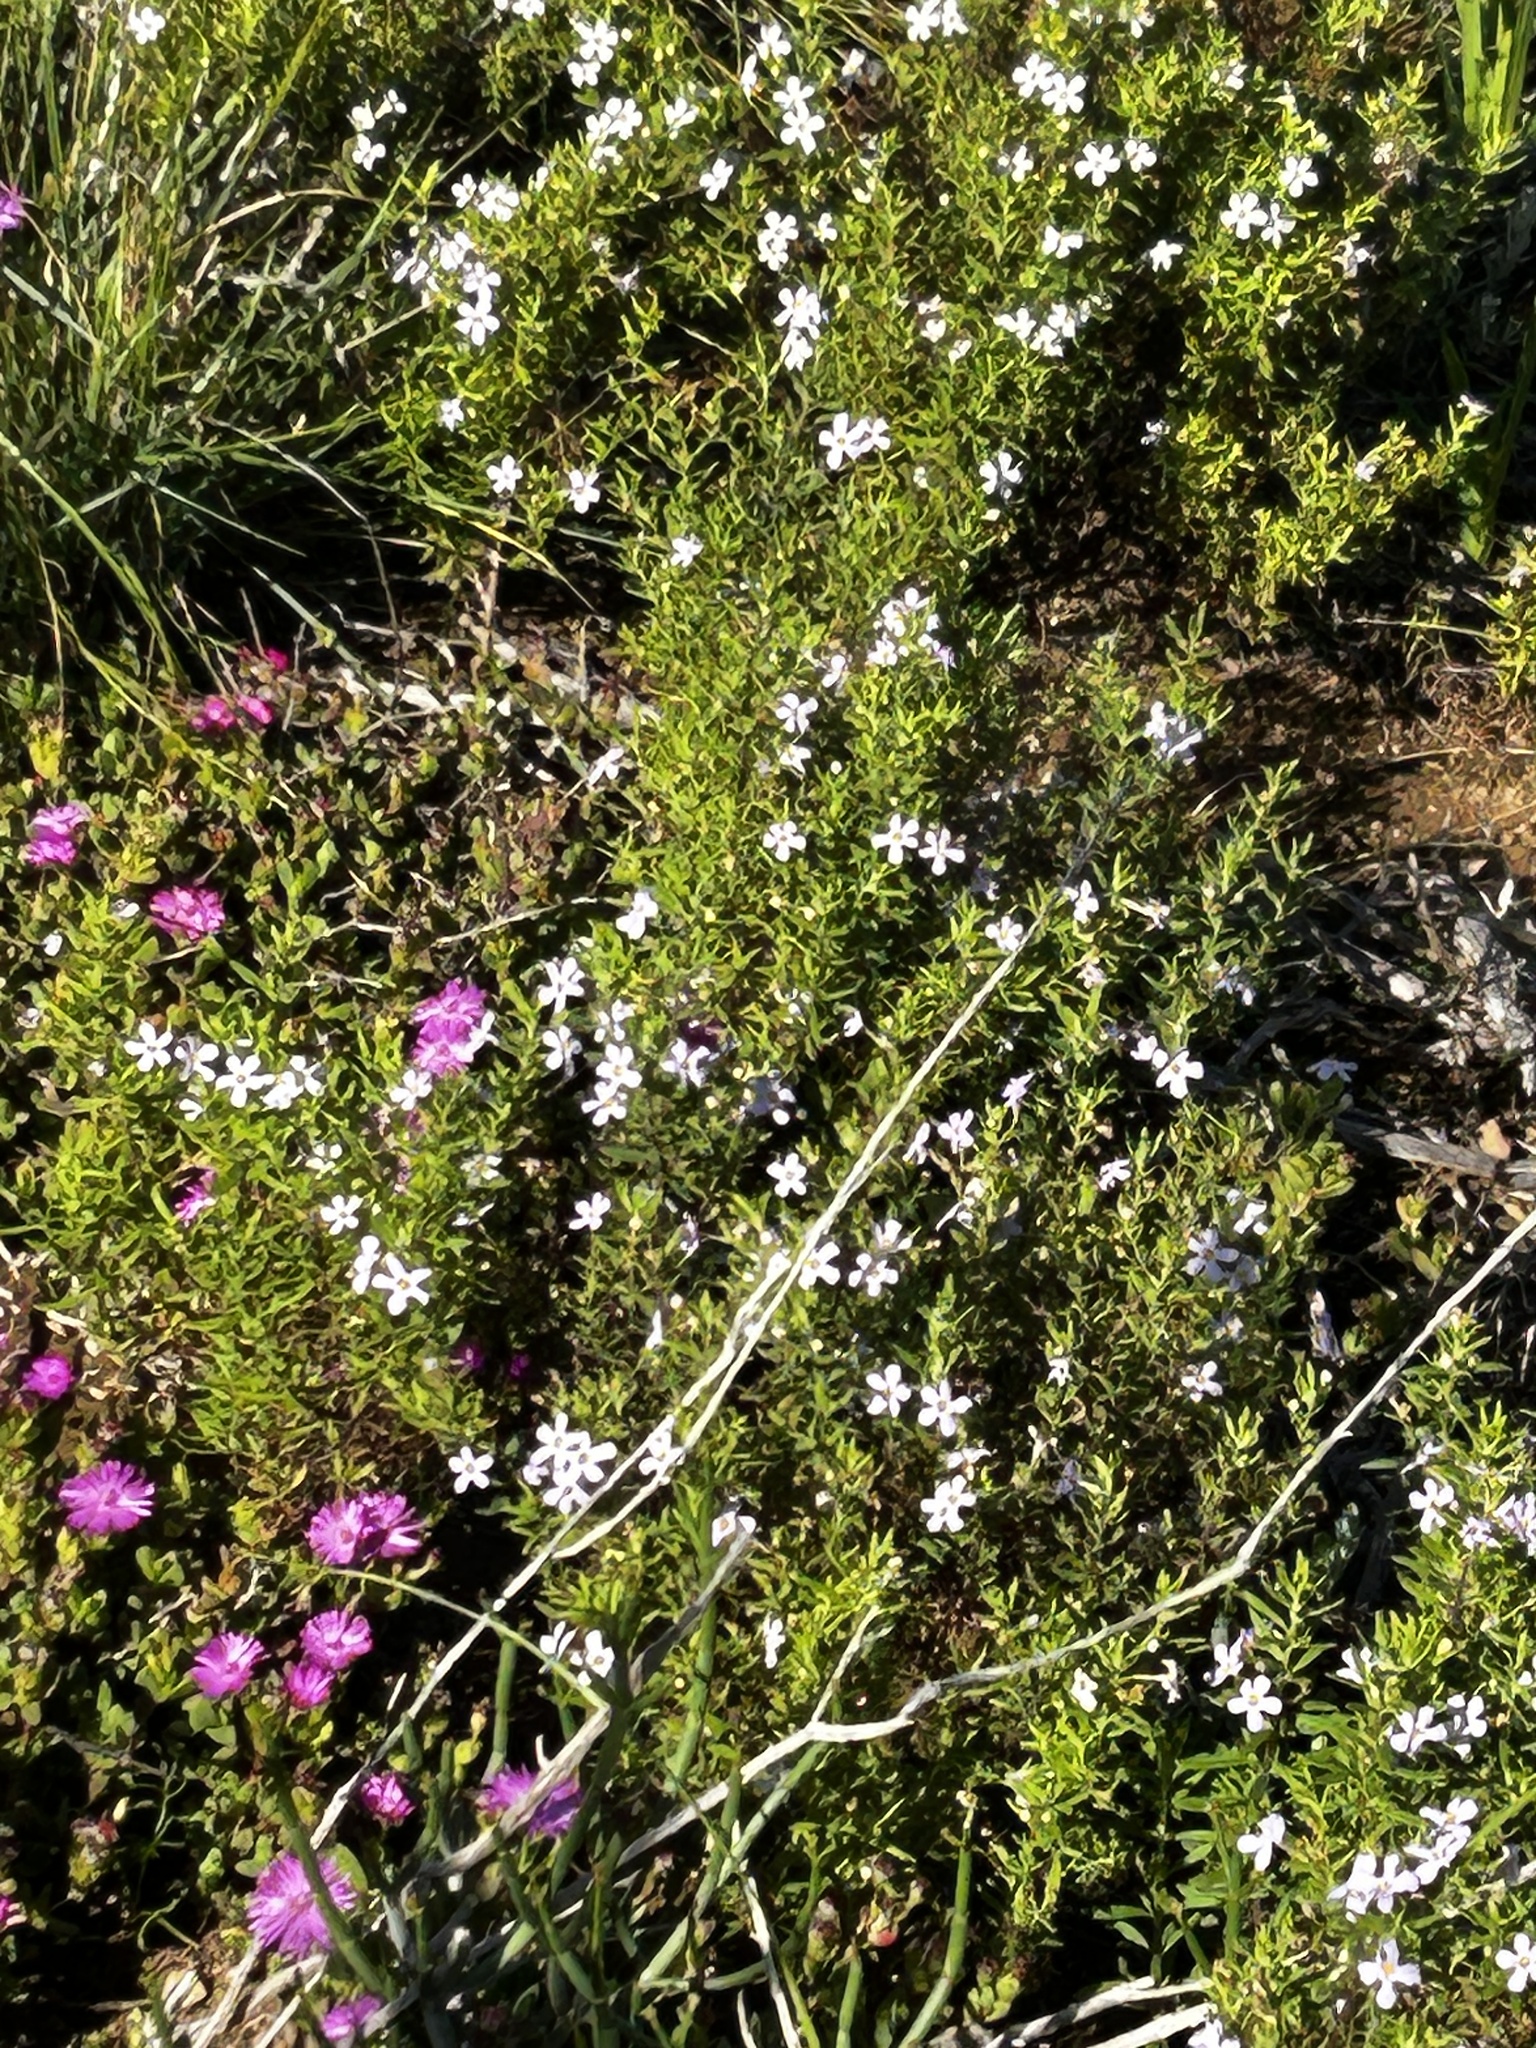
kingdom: Plantae
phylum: Tracheophyta
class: Magnoliopsida
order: Caryophyllales
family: Aizoaceae
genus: Ruschia
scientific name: Ruschia leptocalyx
